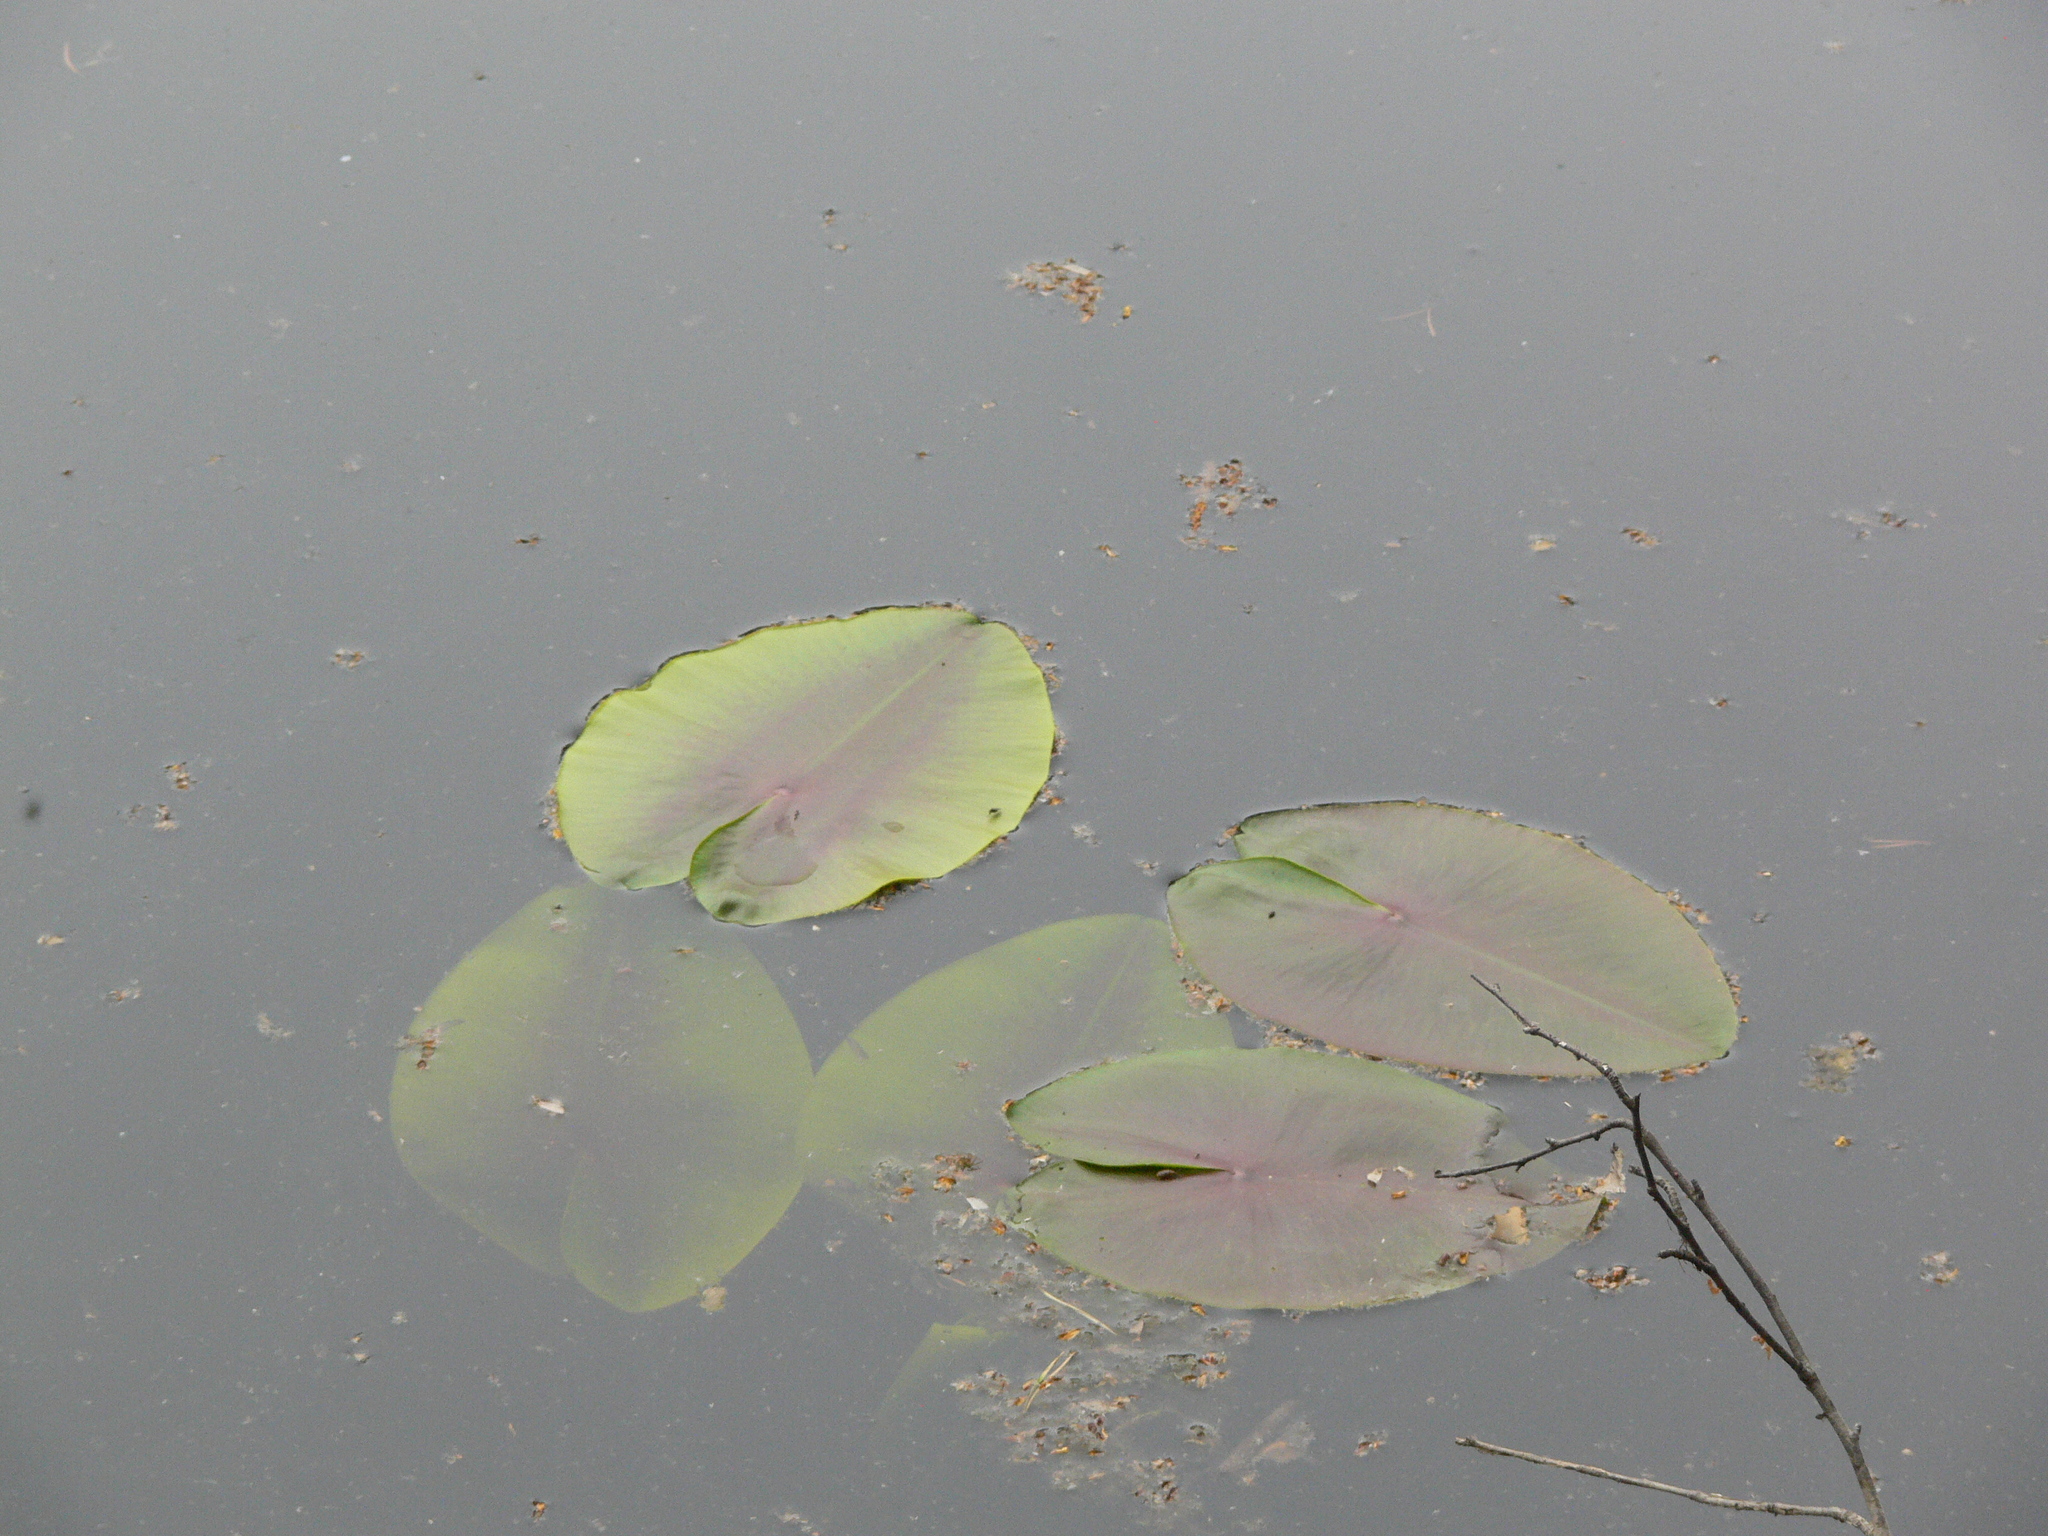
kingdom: Plantae
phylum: Tracheophyta
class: Magnoliopsida
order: Nymphaeales
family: Nymphaeaceae
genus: Nymphaea
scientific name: Nymphaea candida
